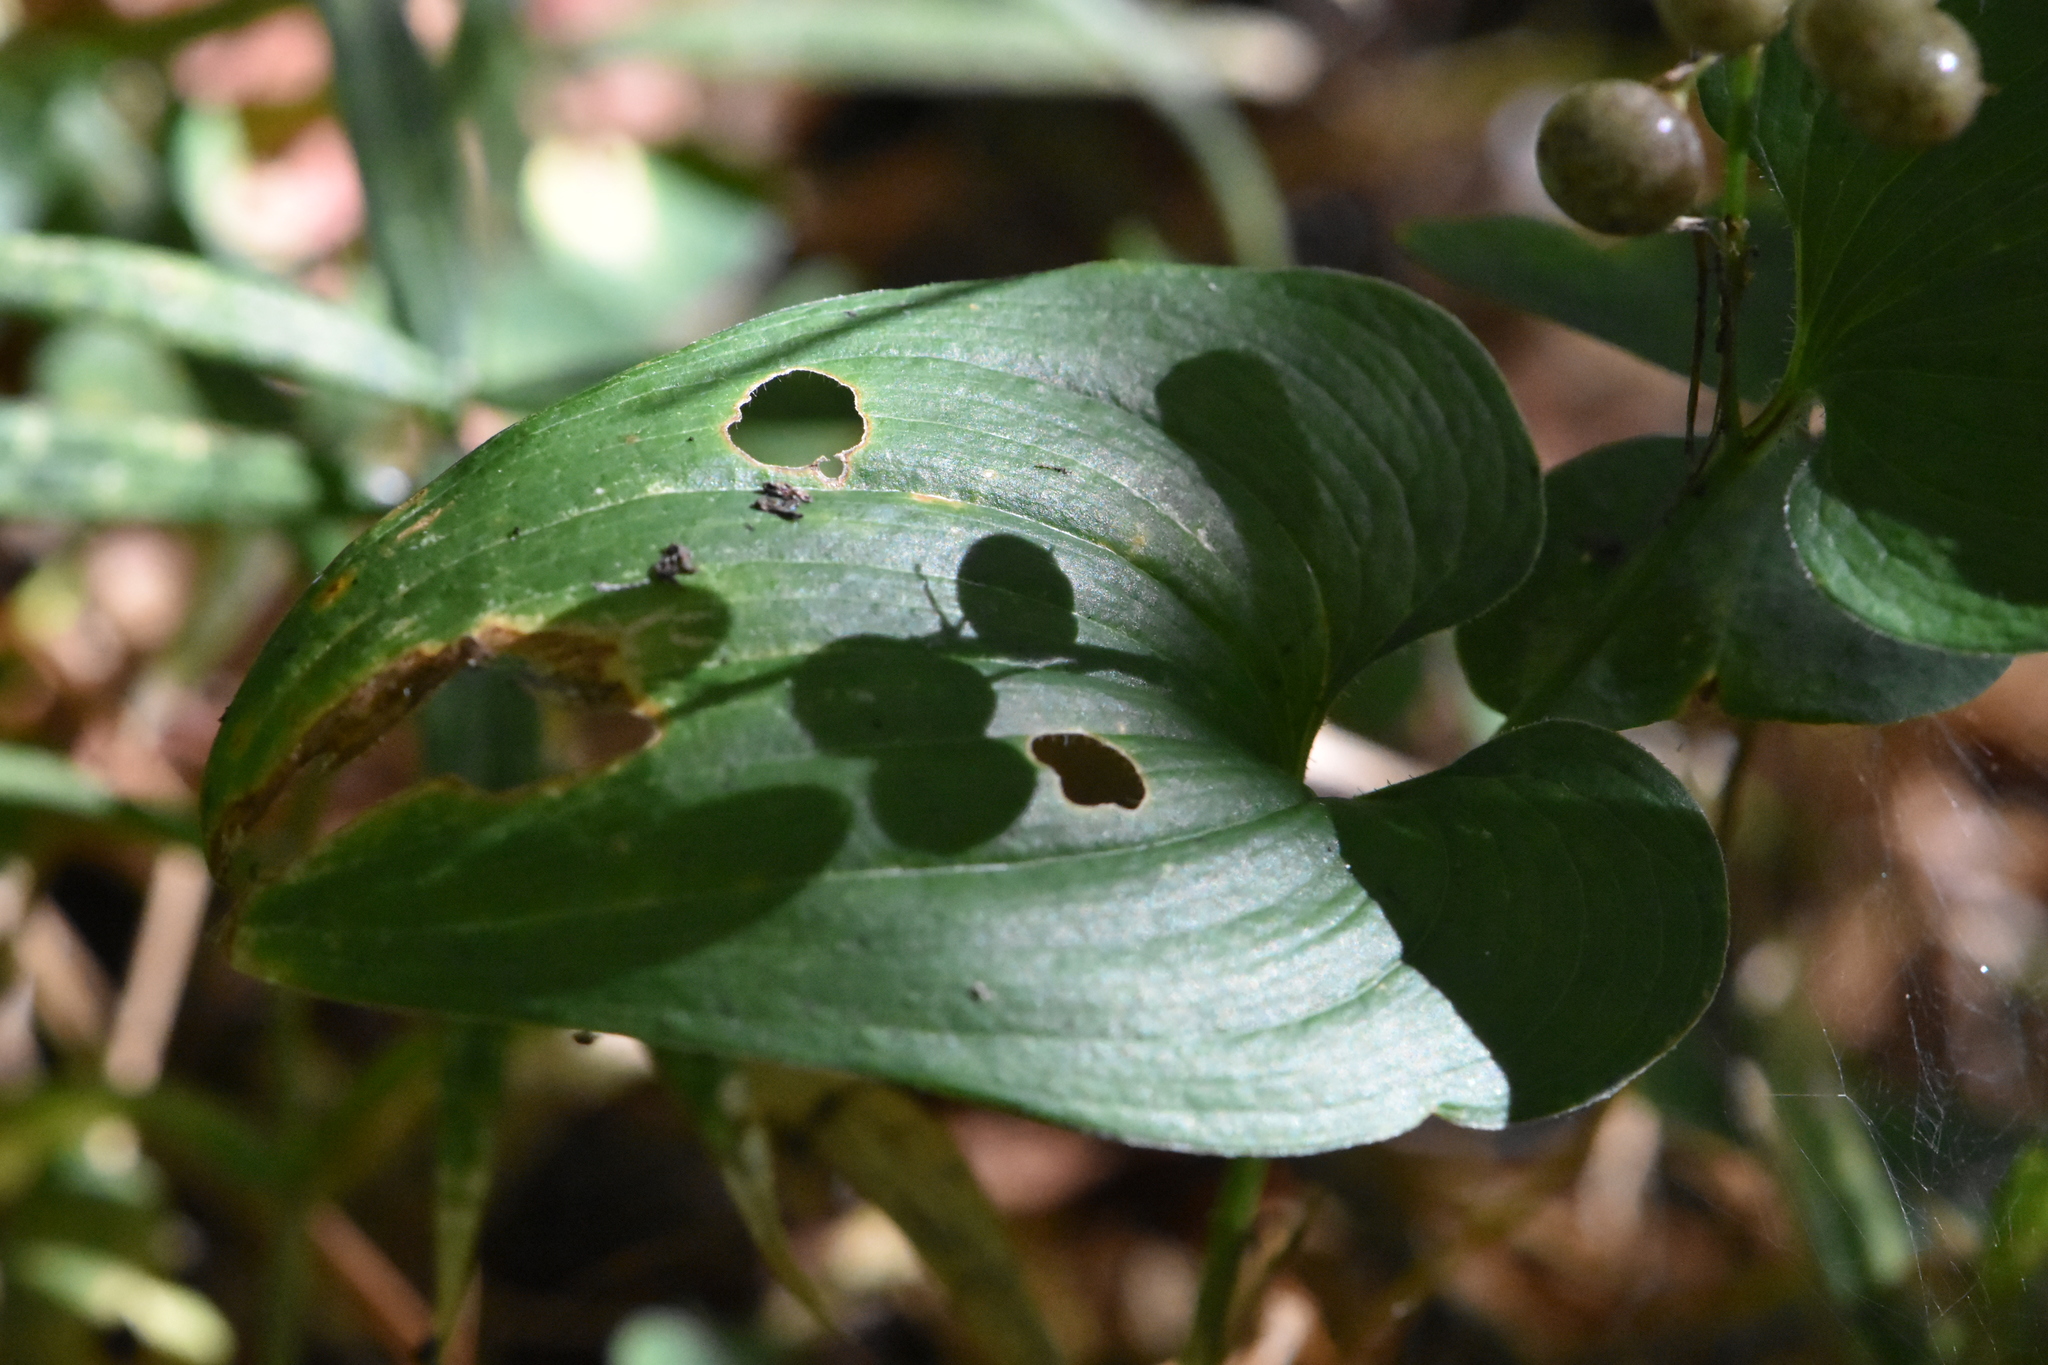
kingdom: Plantae
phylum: Tracheophyta
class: Liliopsida
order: Asparagales
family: Asparagaceae
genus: Maianthemum
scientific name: Maianthemum bifolium
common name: May lily
